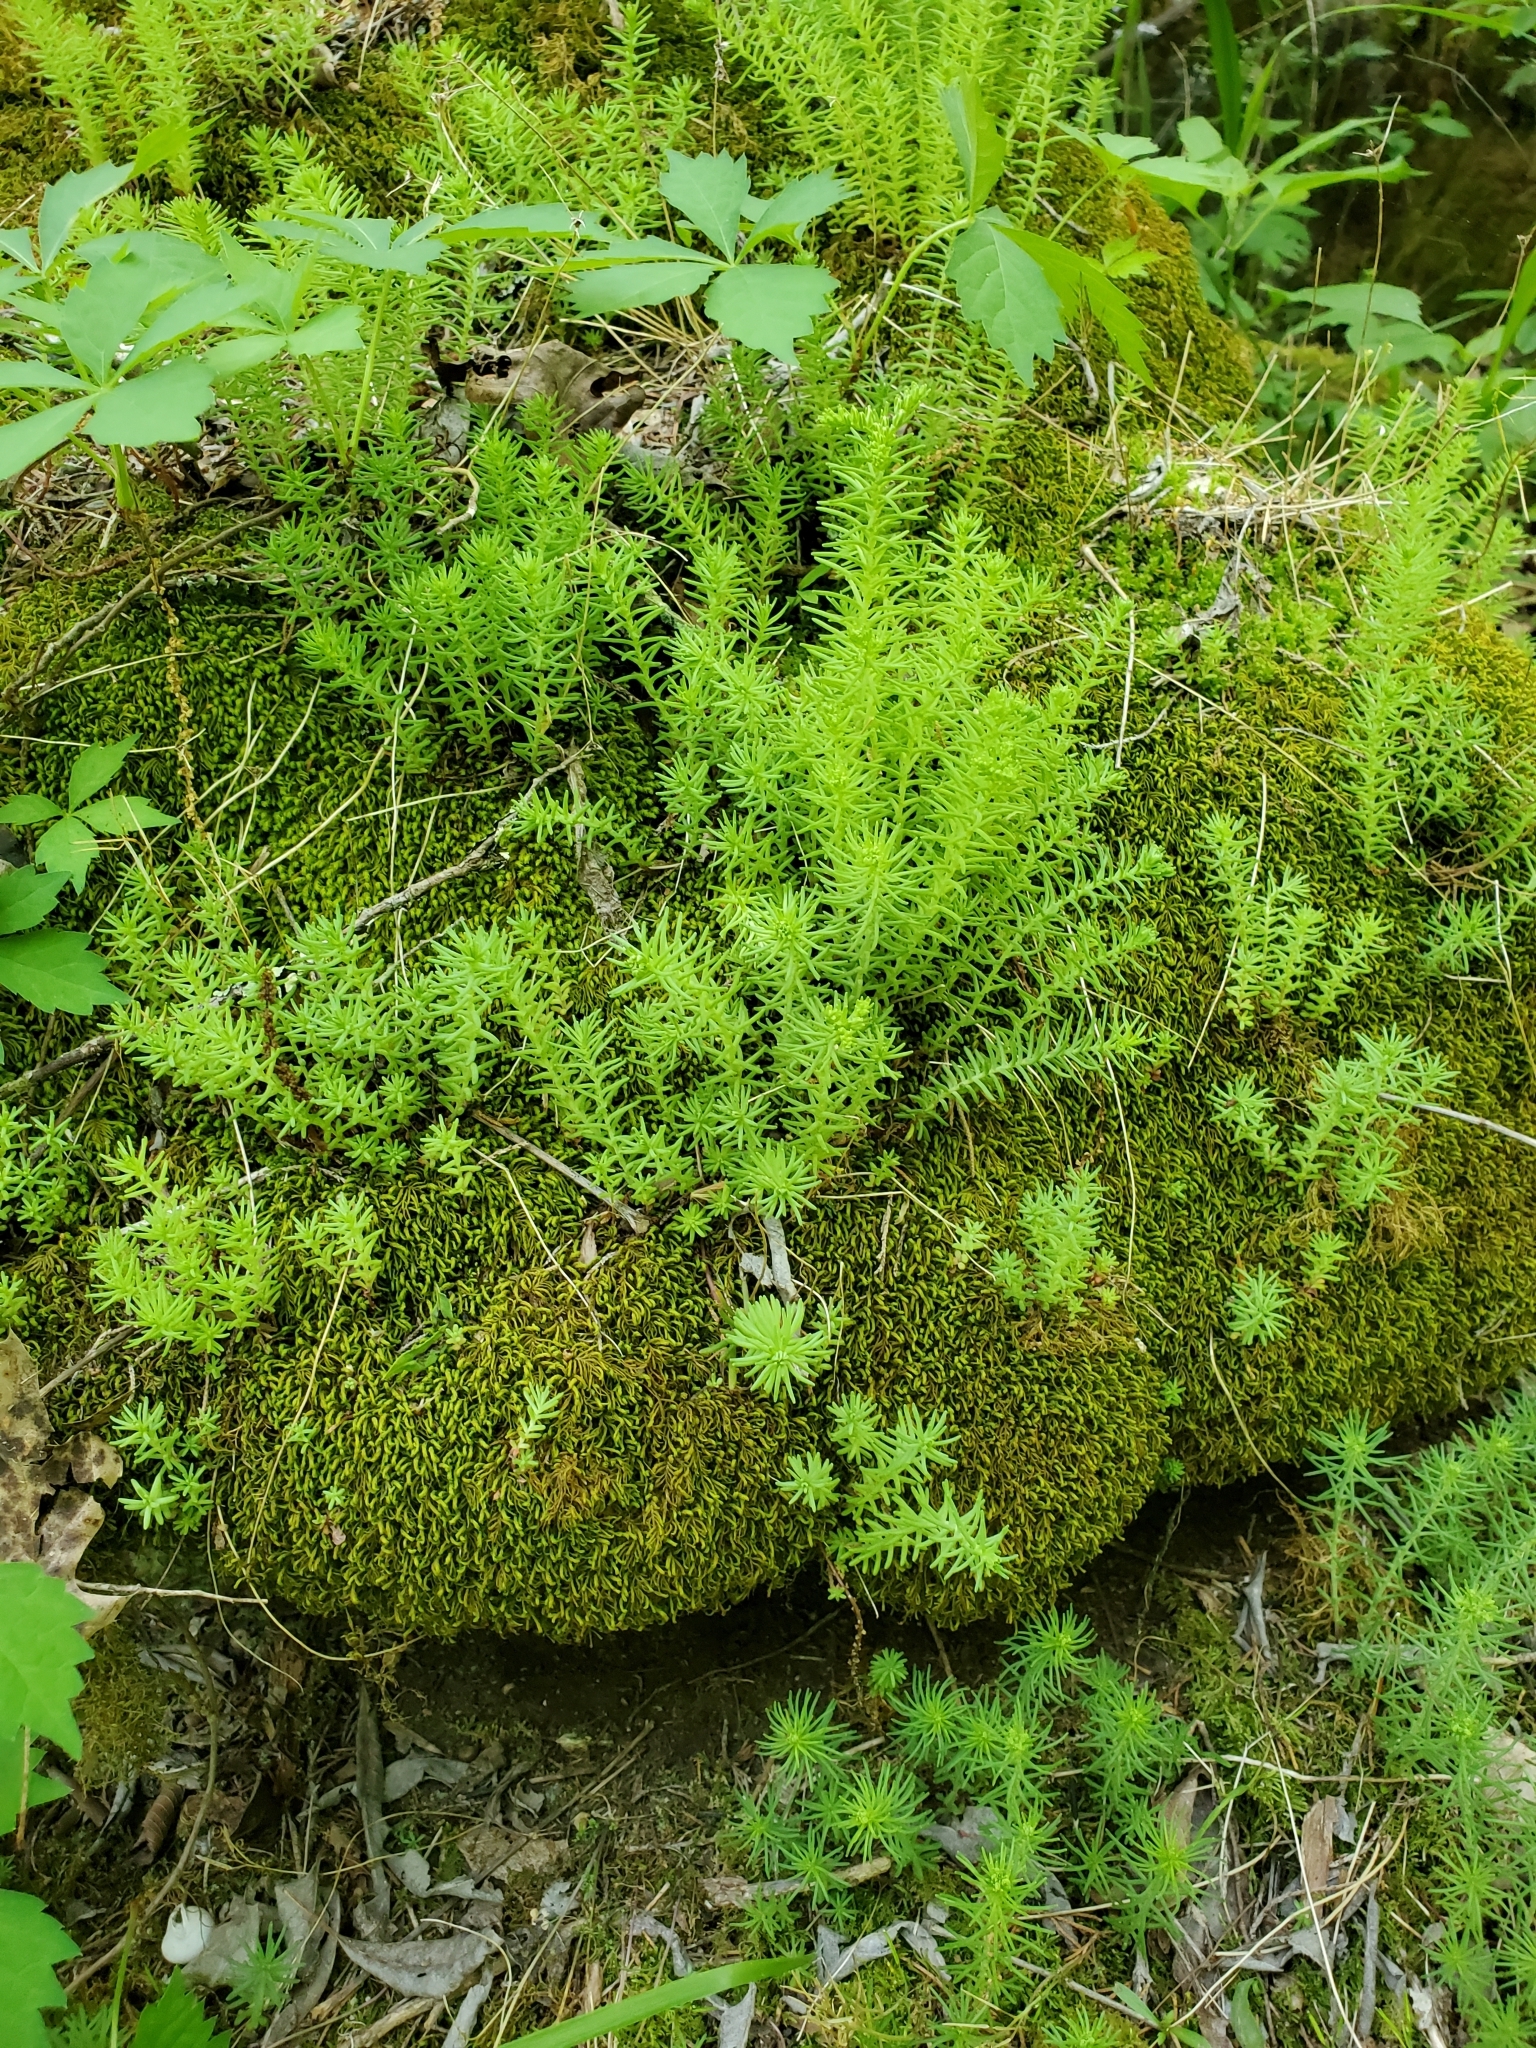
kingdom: Plantae
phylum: Tracheophyta
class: Magnoliopsida
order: Saxifragales
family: Crassulaceae
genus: Sedum
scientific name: Sedum pulchellum
